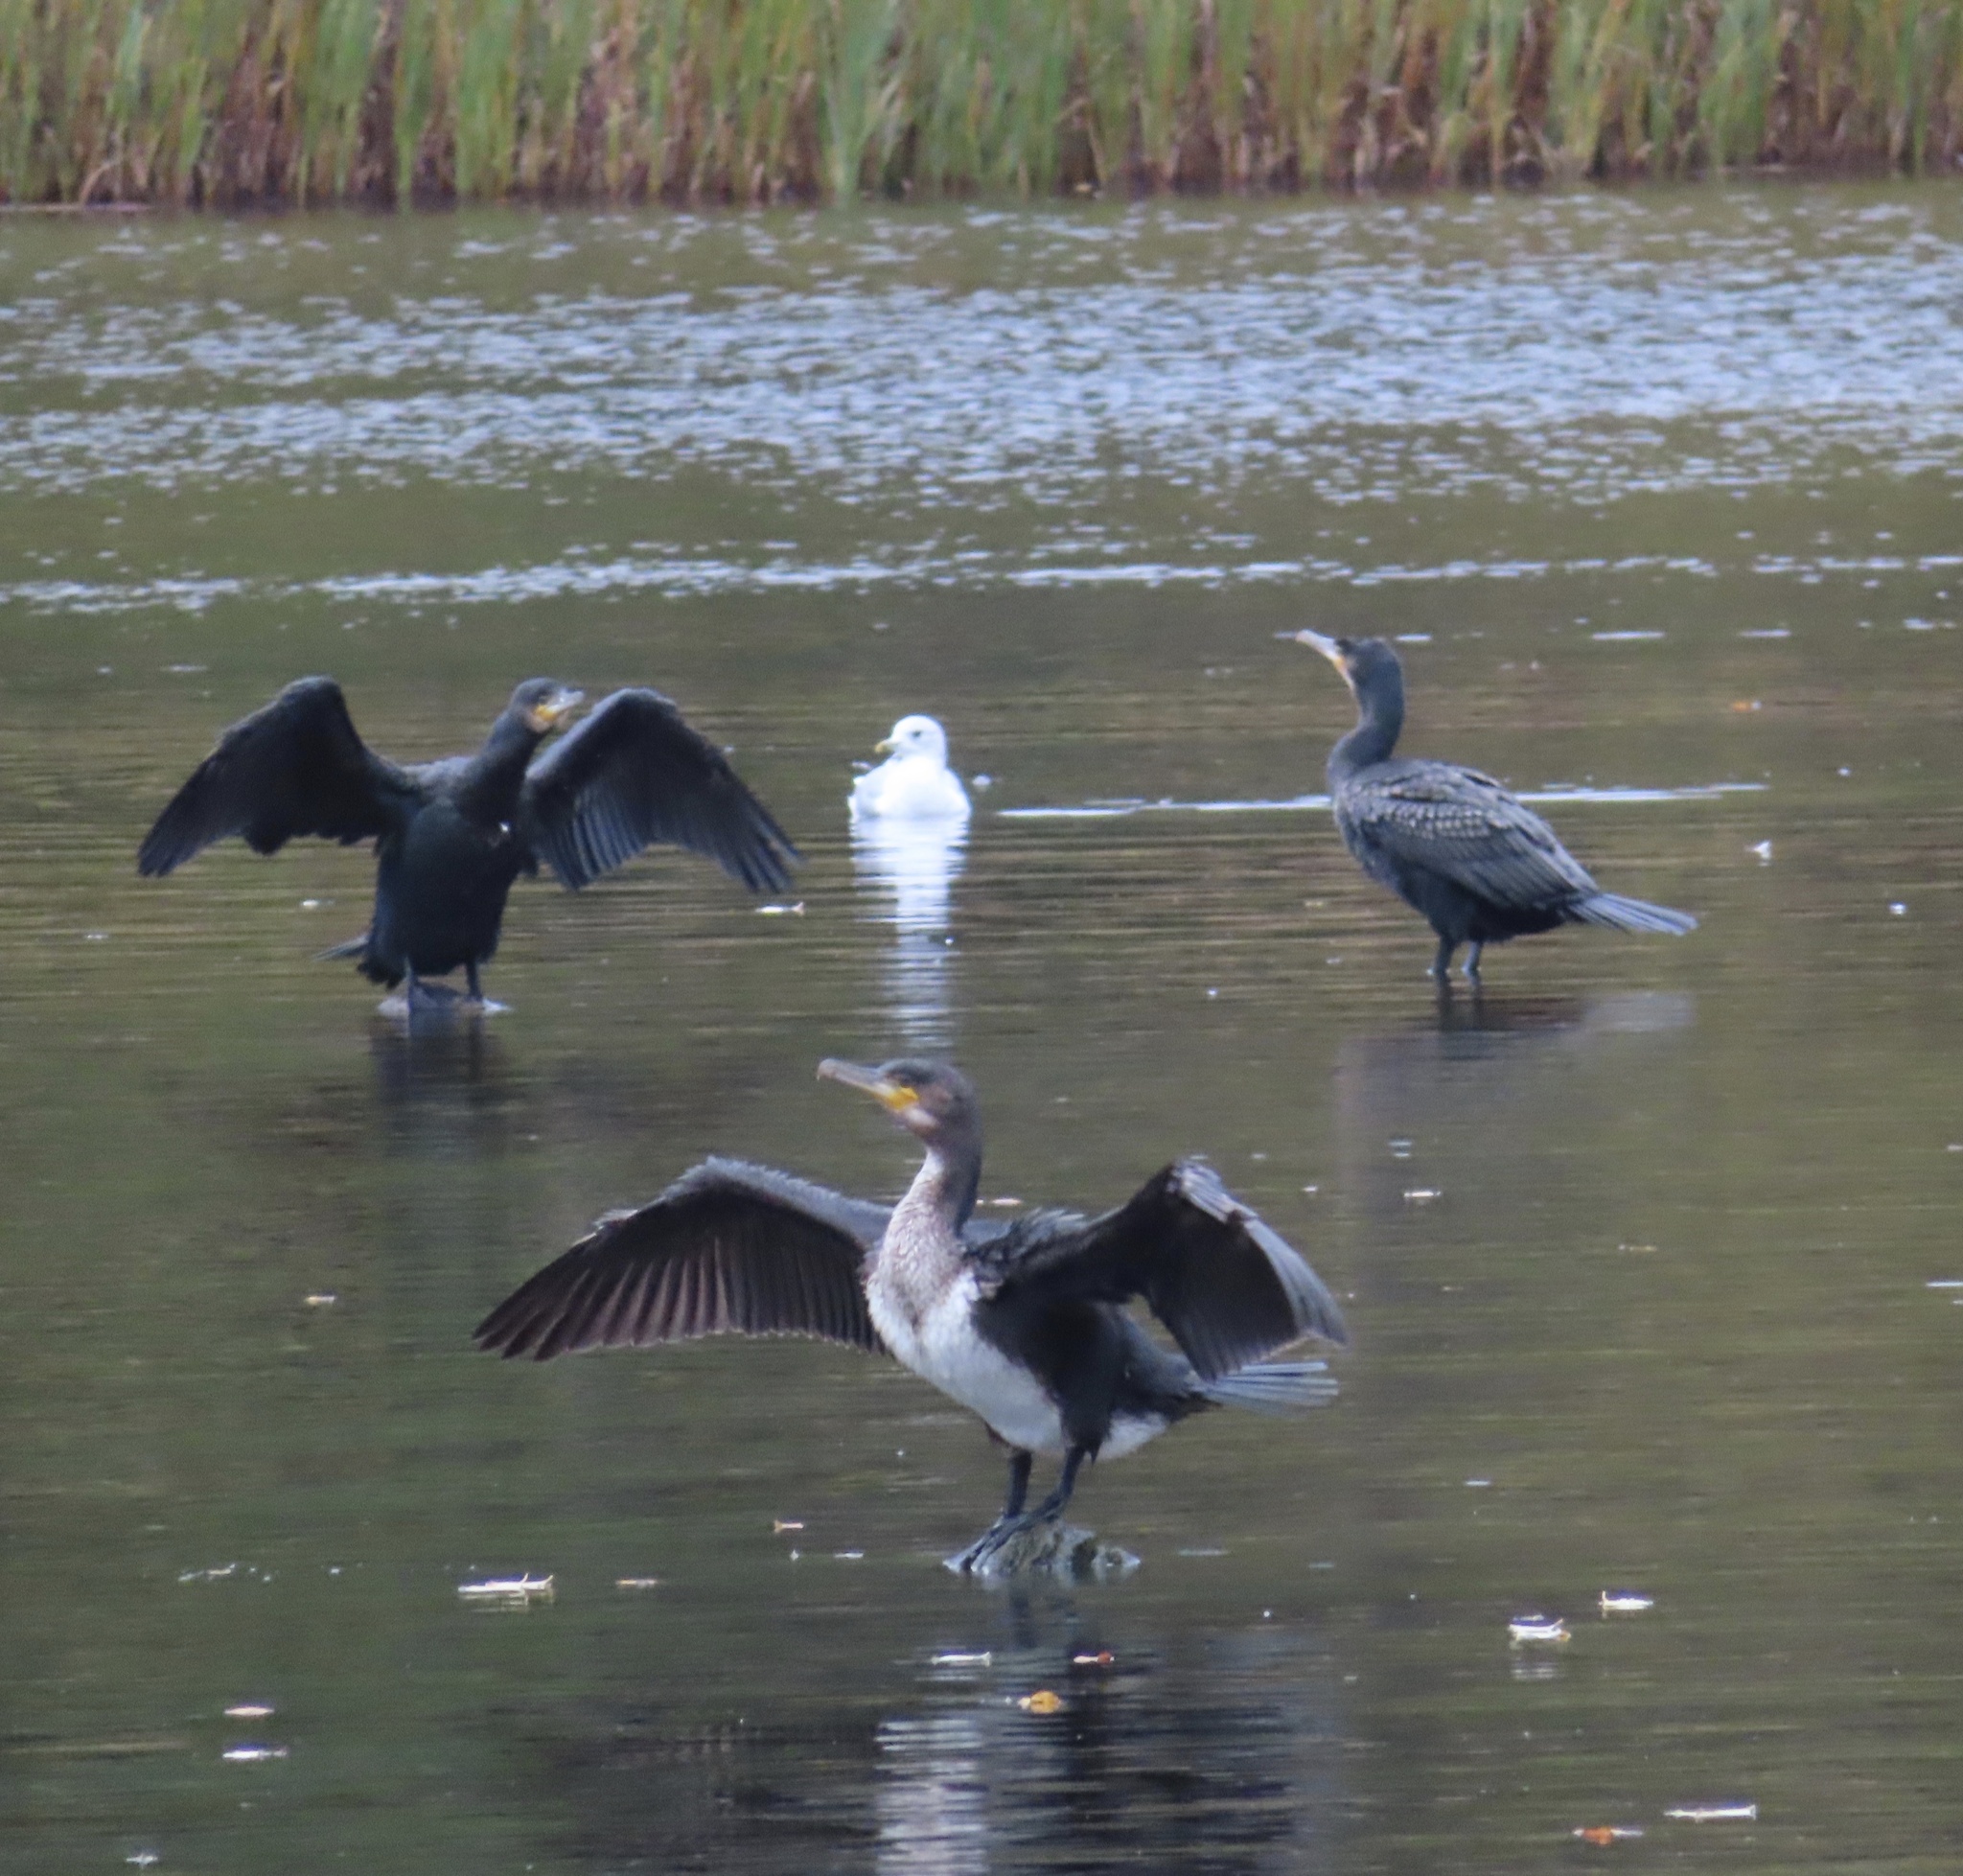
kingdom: Animalia
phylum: Chordata
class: Aves
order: Suliformes
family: Phalacrocoracidae
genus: Phalacrocorax
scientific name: Phalacrocorax carbo
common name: Great cormorant
